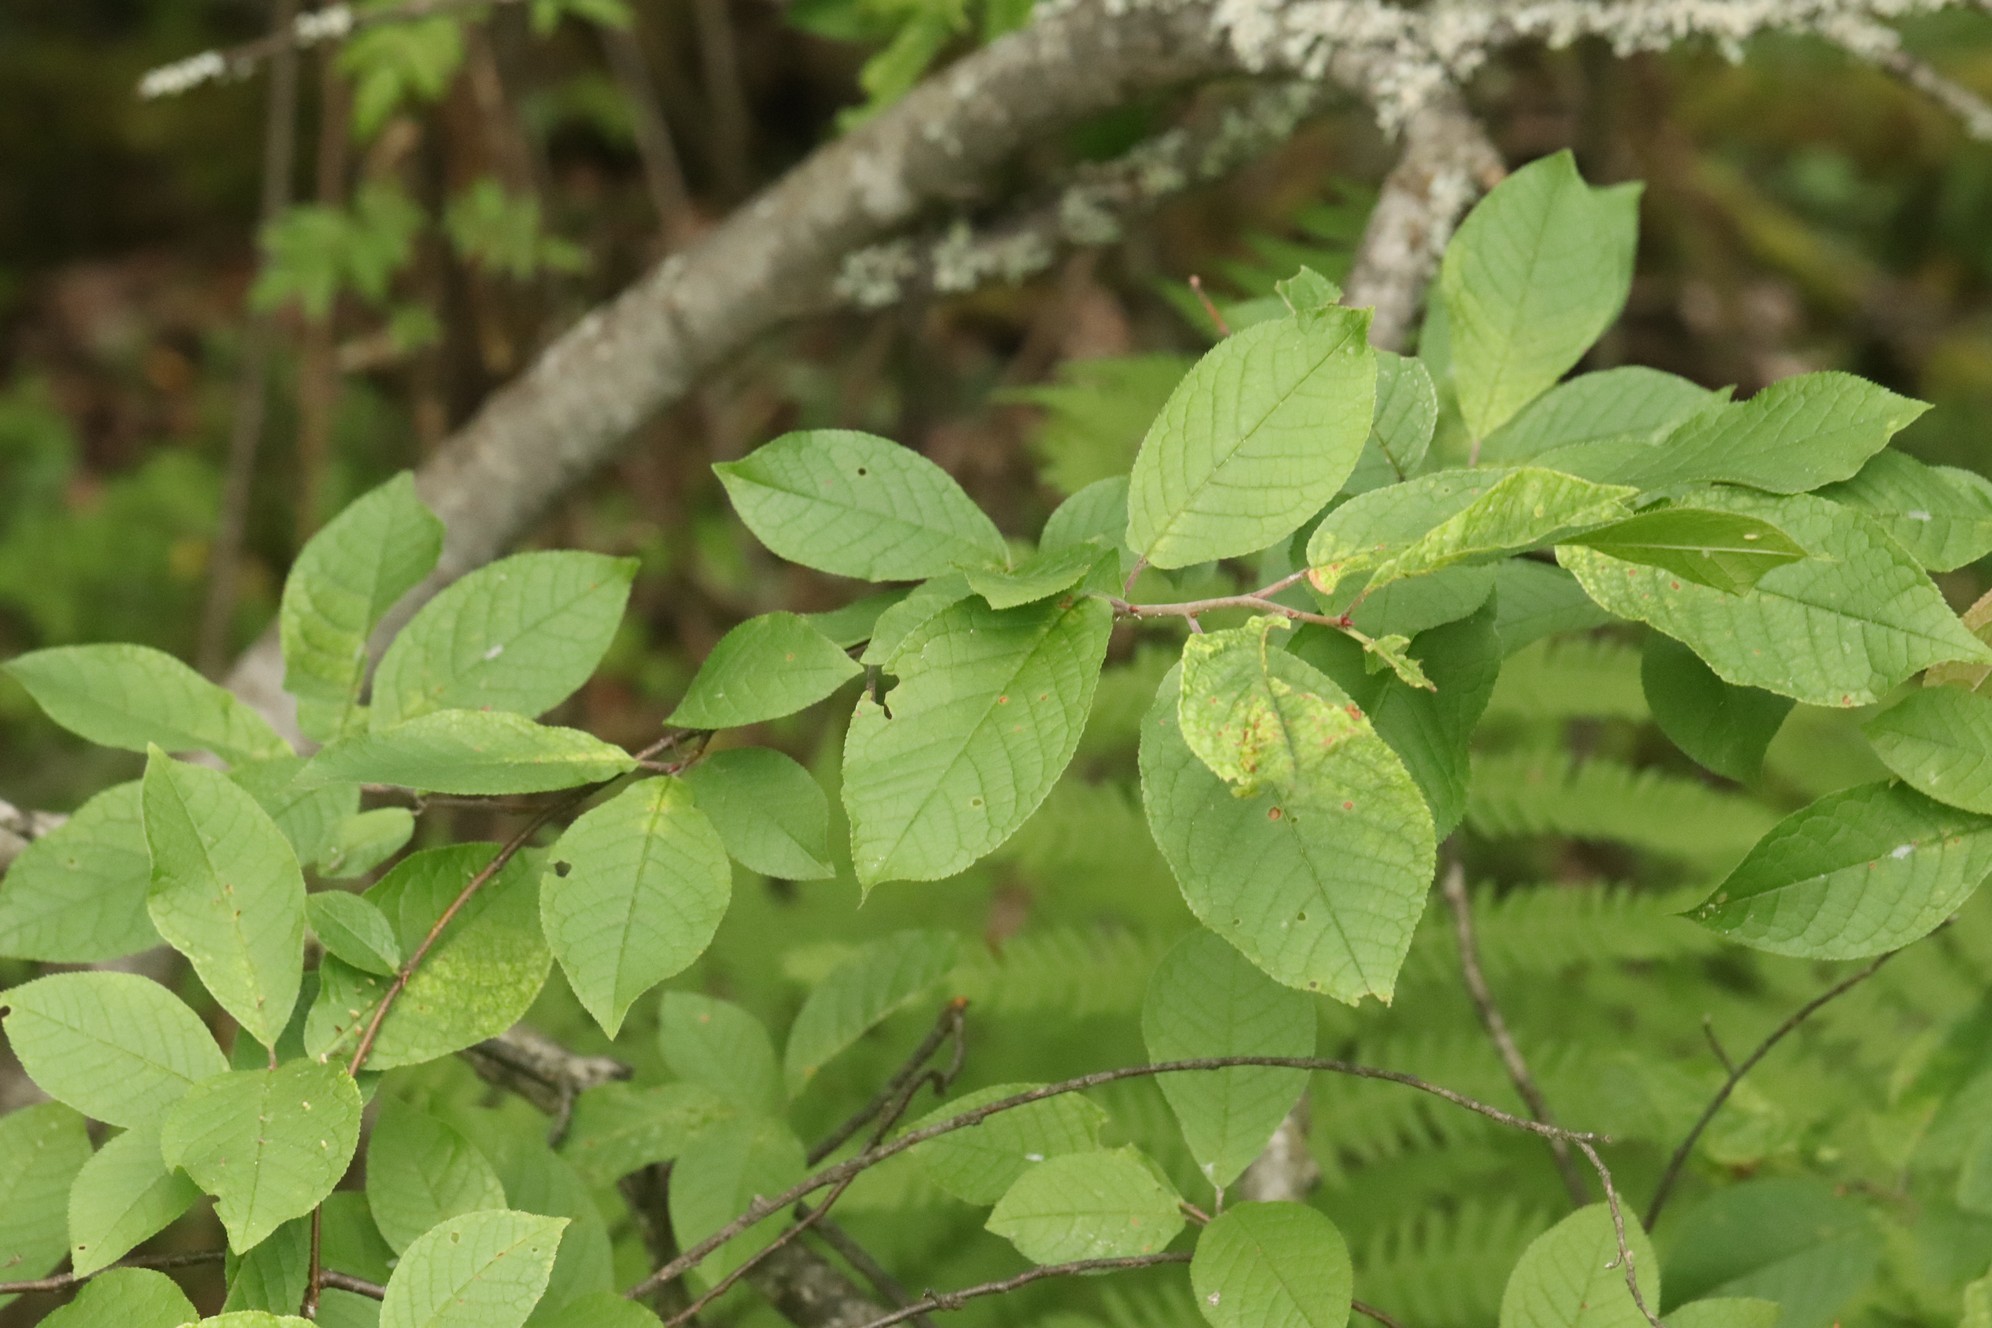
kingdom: Plantae
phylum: Tracheophyta
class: Magnoliopsida
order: Rosales
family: Rosaceae
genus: Prunus
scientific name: Prunus padus
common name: Bird cherry
